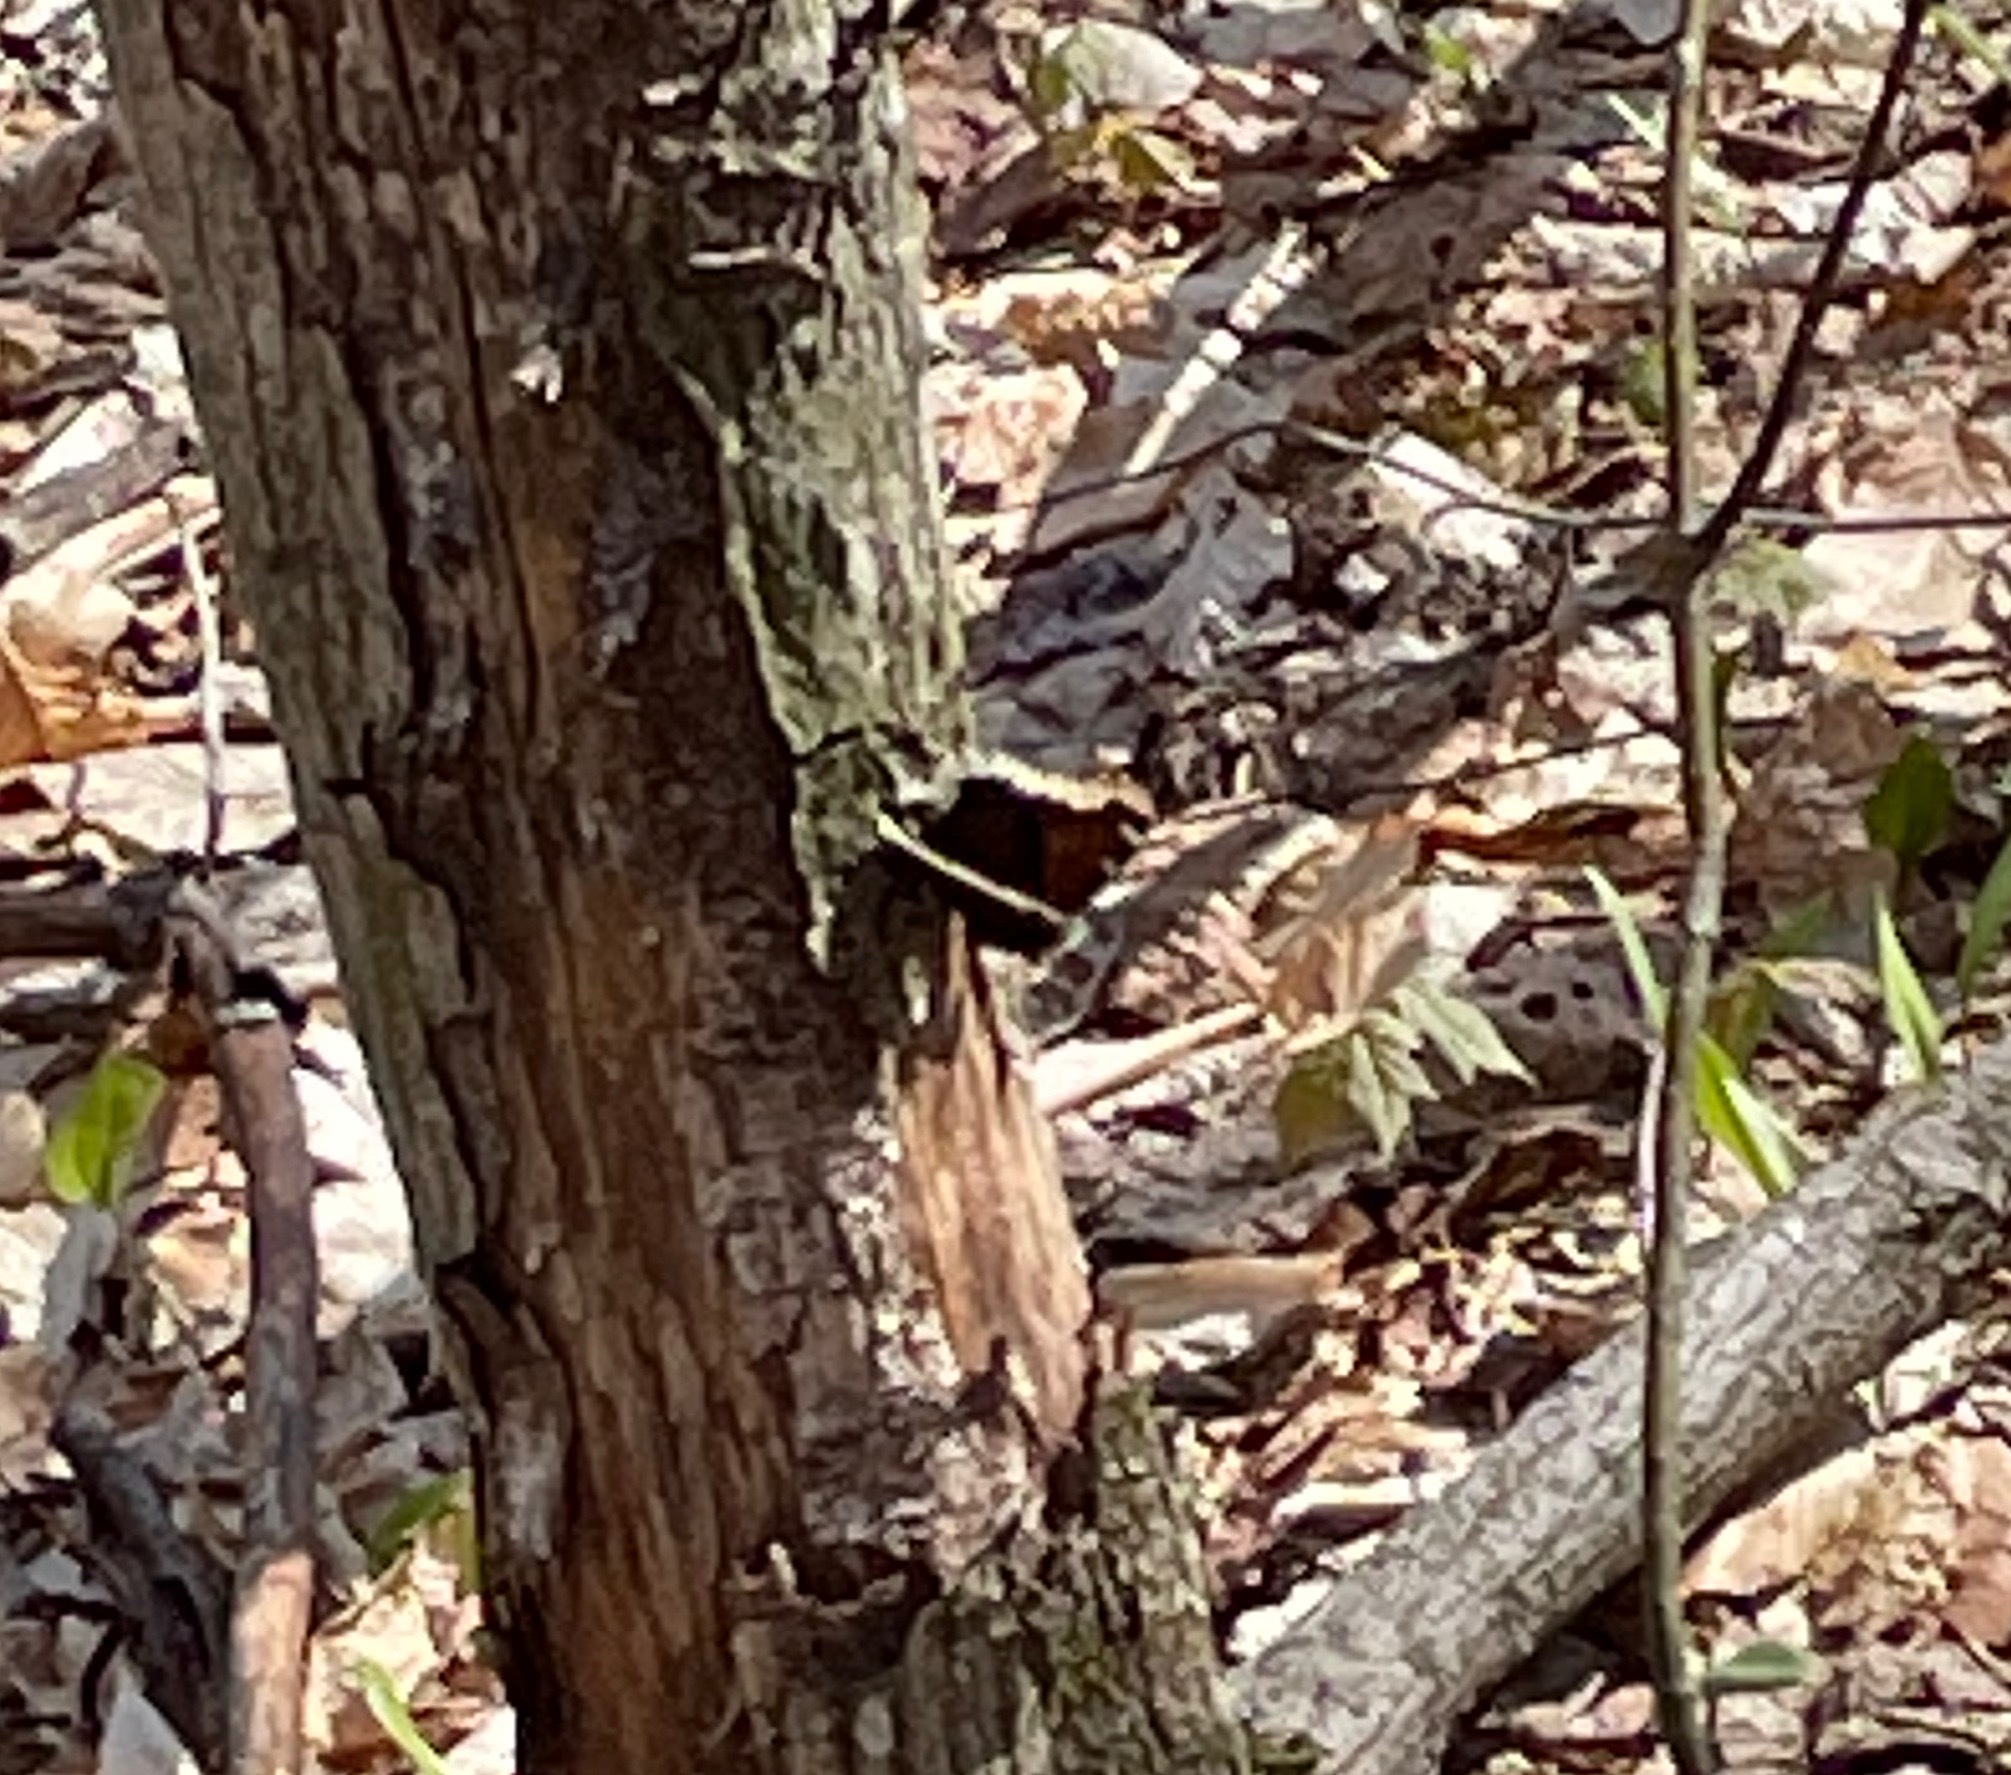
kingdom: Animalia
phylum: Arthropoda
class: Insecta
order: Lepidoptera
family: Nymphalidae
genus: Nymphalis
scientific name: Nymphalis antiopa
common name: Camberwell beauty
